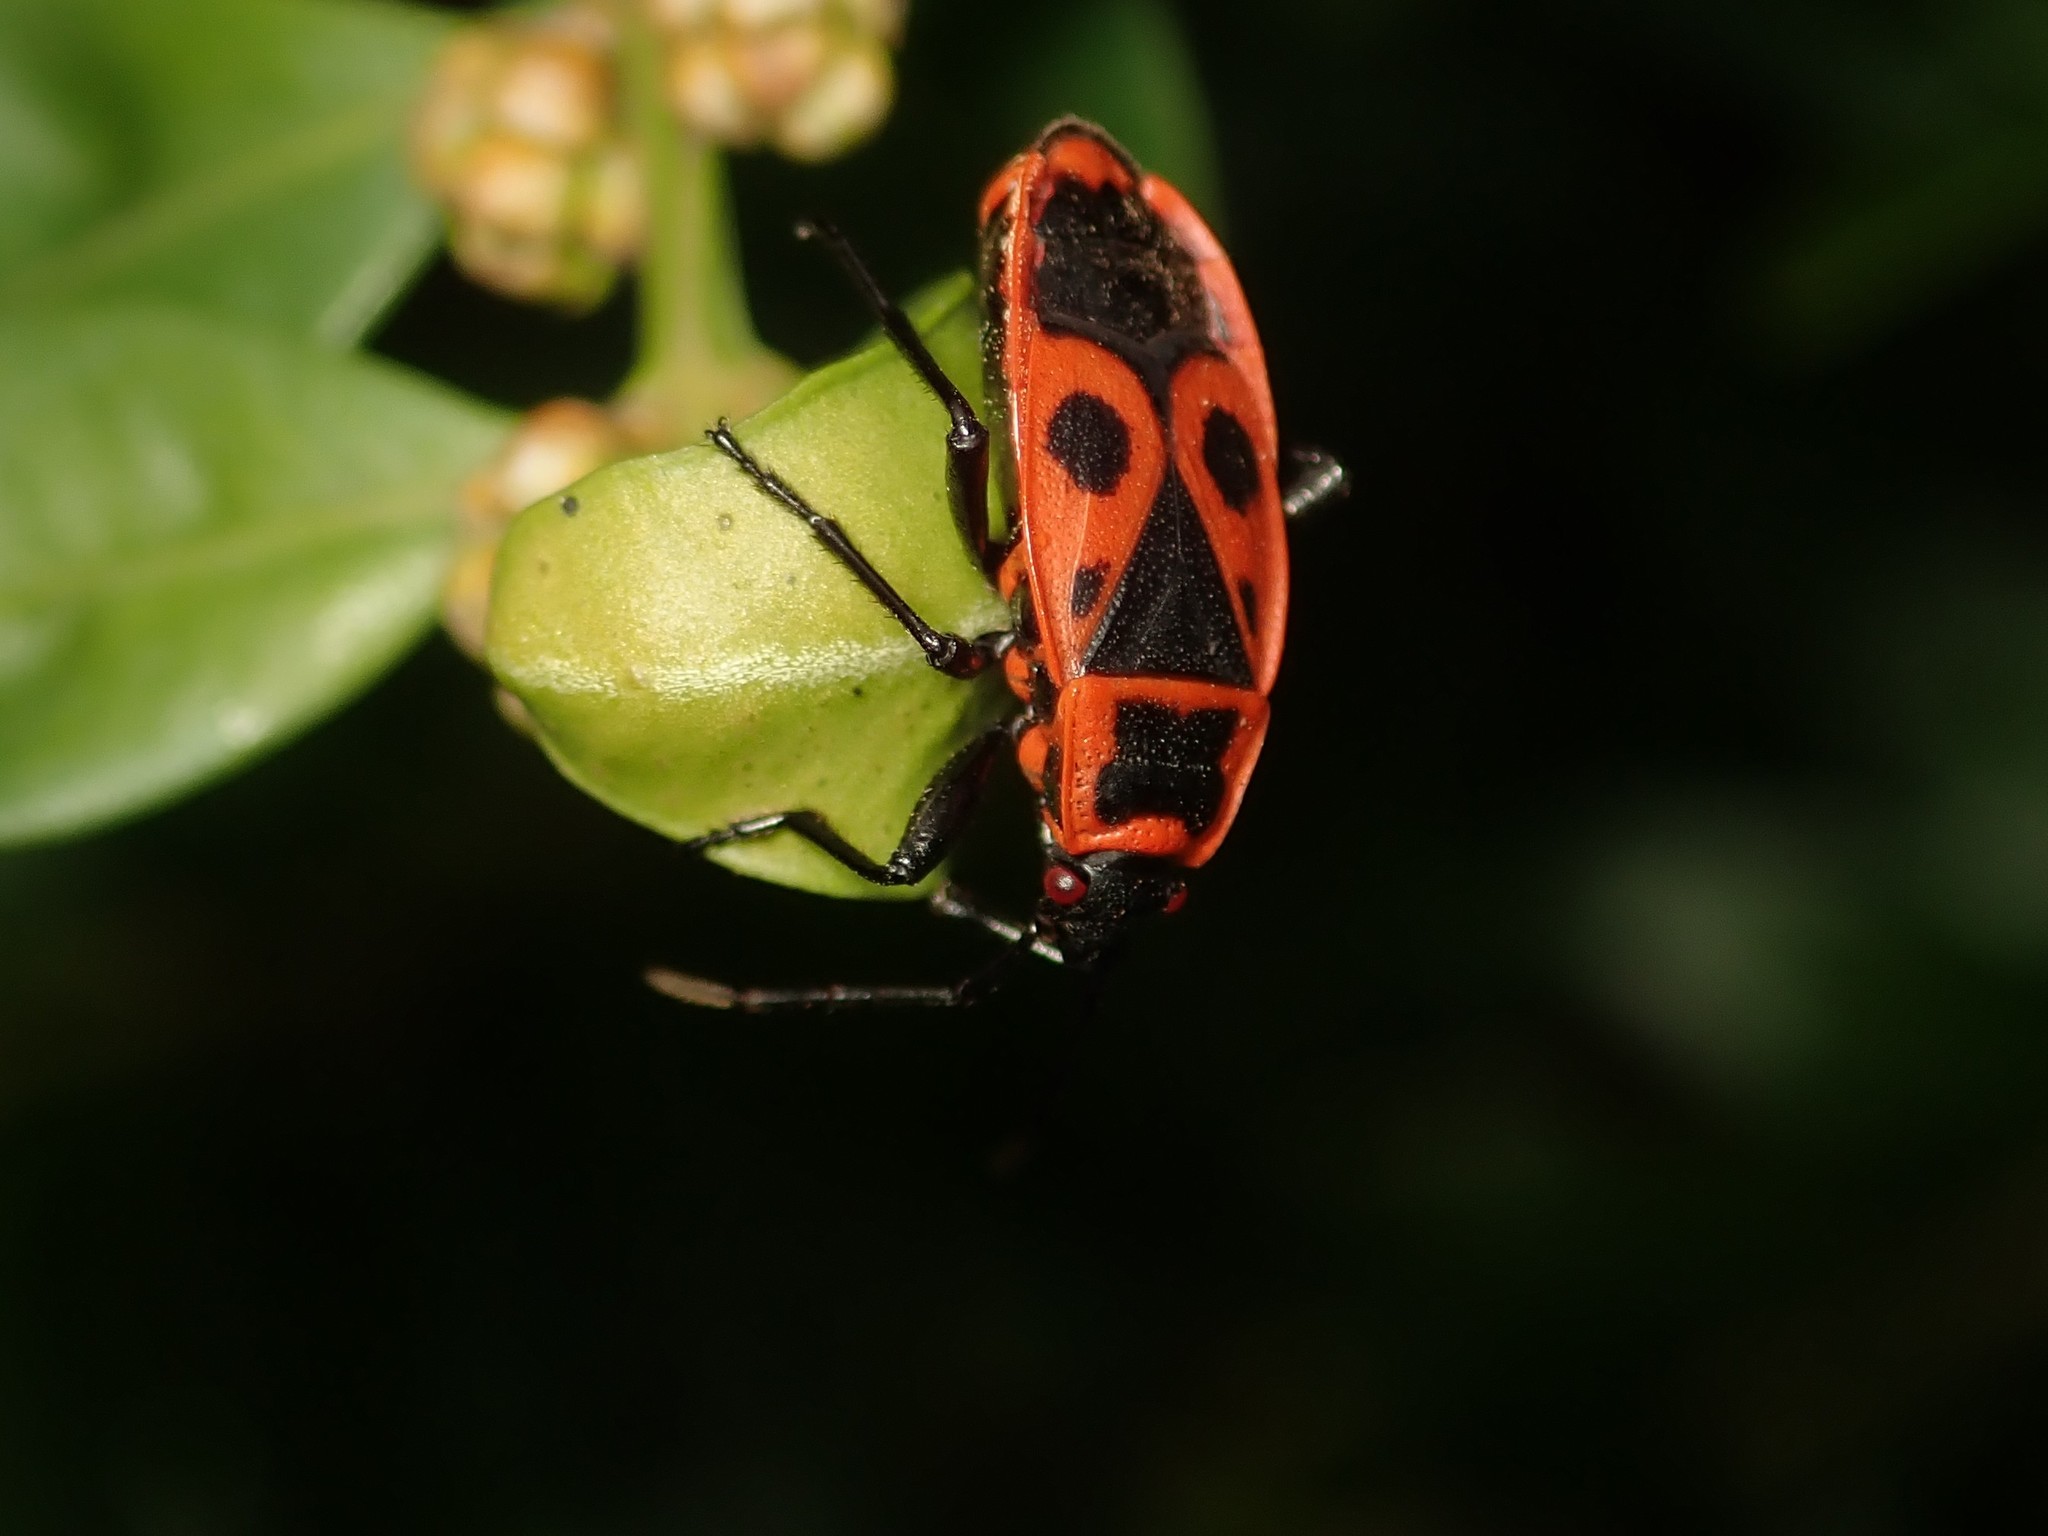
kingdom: Animalia
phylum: Arthropoda
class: Insecta
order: Hemiptera
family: Pyrrhocoridae
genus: Pyrrhocoris
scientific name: Pyrrhocoris apterus
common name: Firebug
